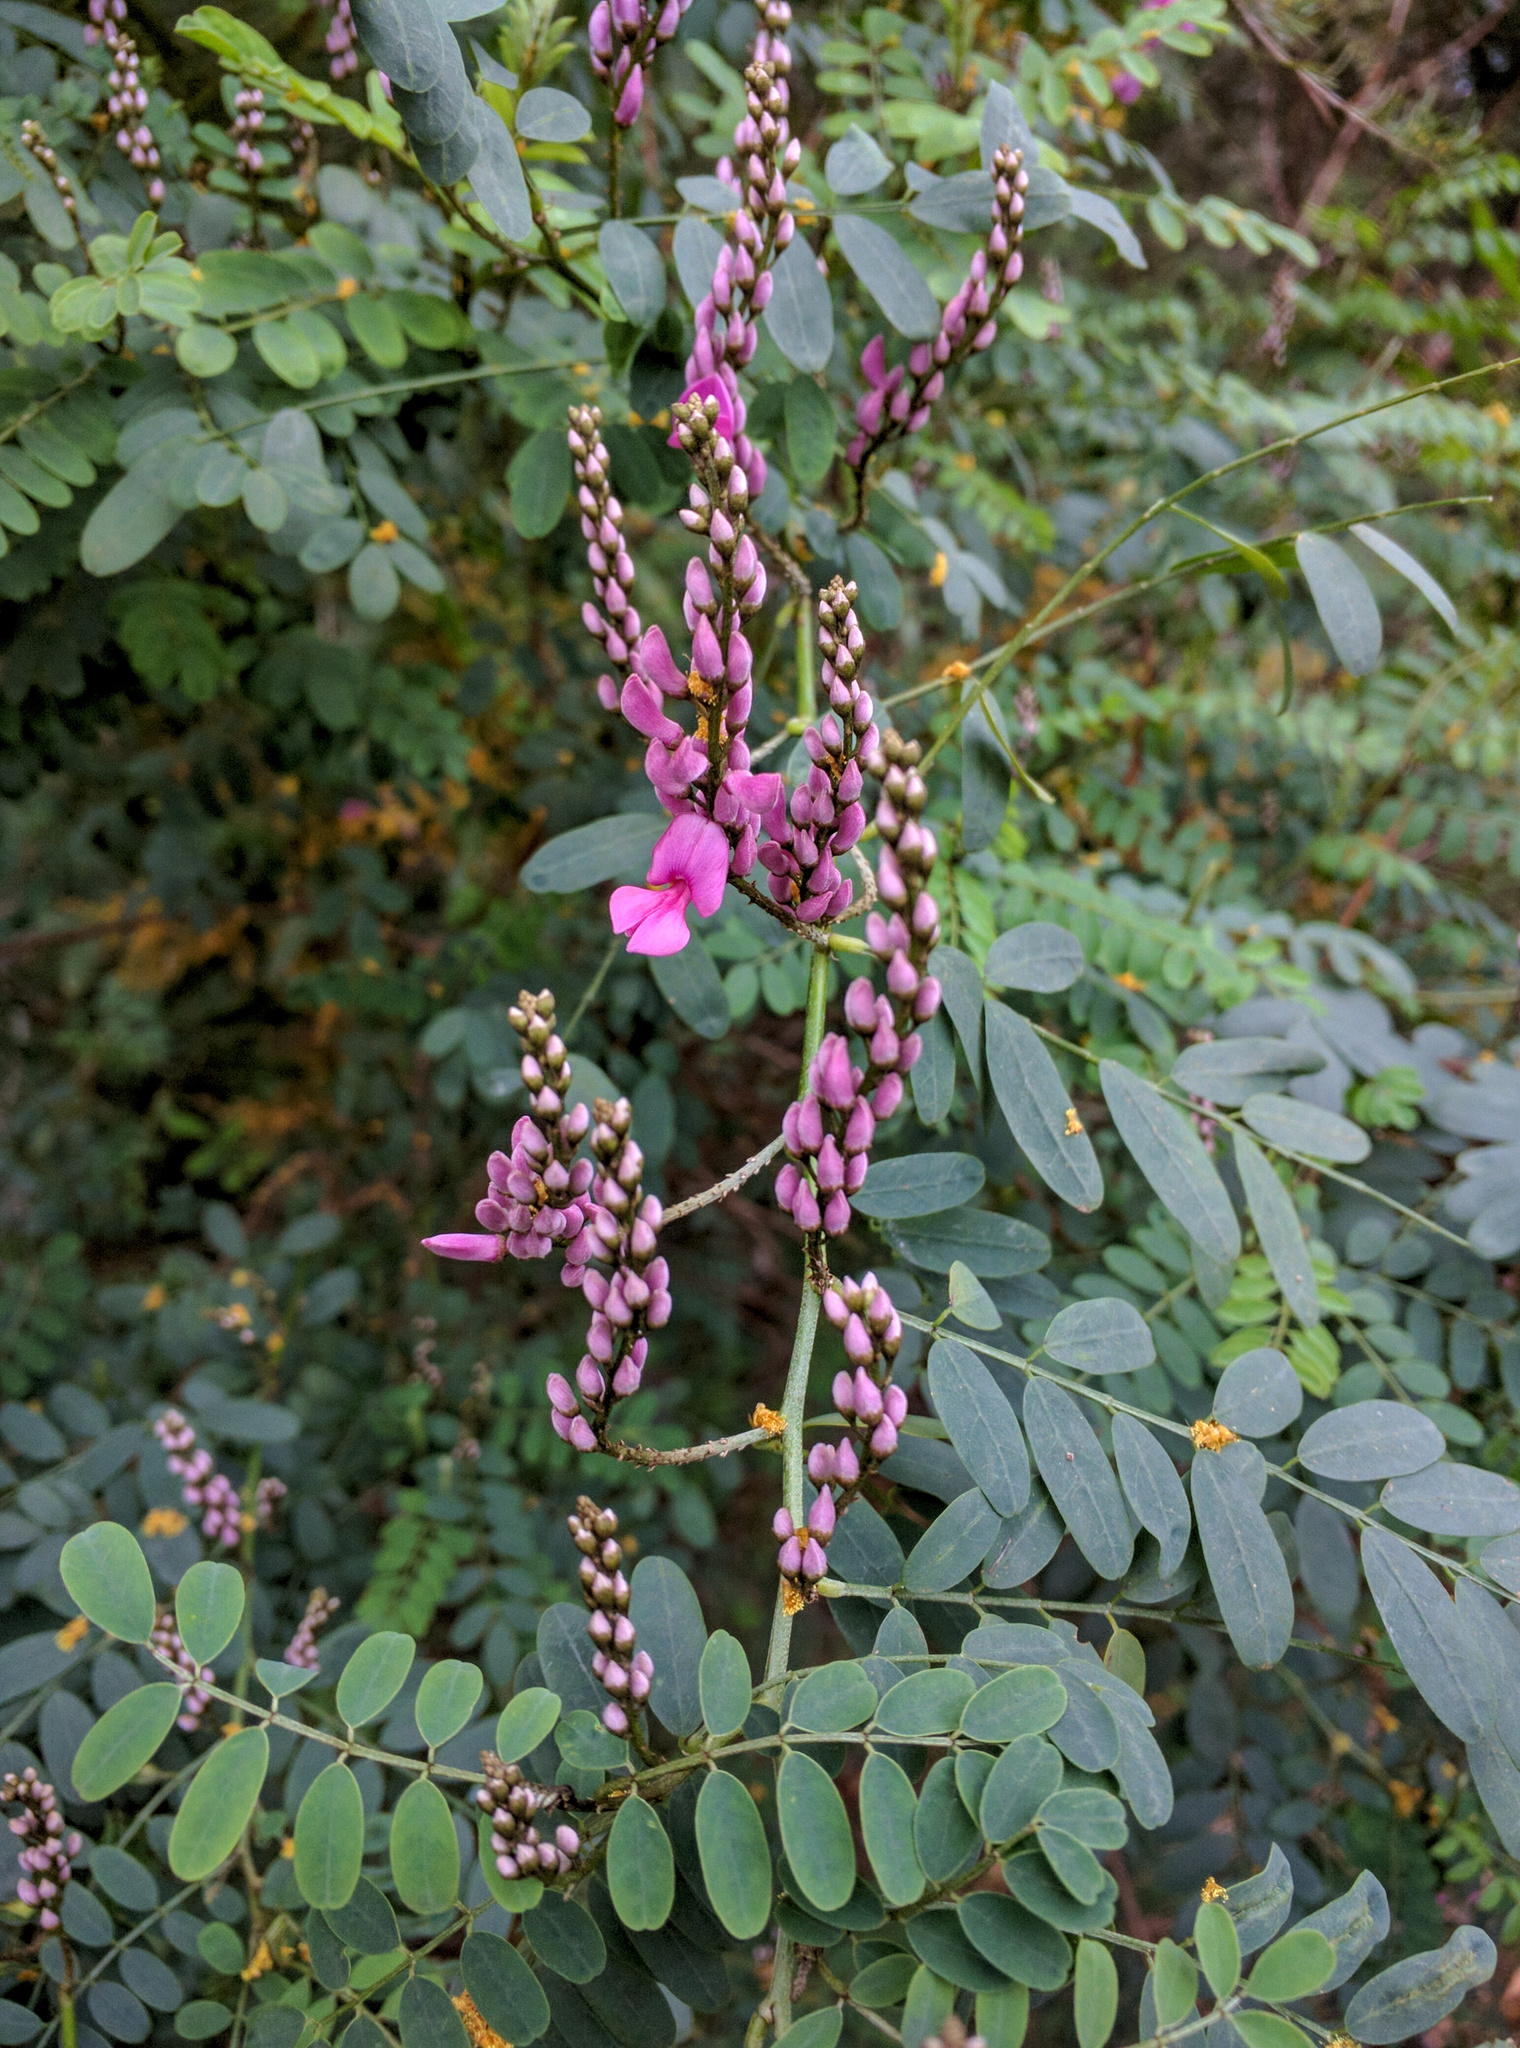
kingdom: Plantae
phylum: Tracheophyta
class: Magnoliopsida
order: Fabales
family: Fabaceae
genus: Indigofera
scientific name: Indigofera australis
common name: Australian indigo
